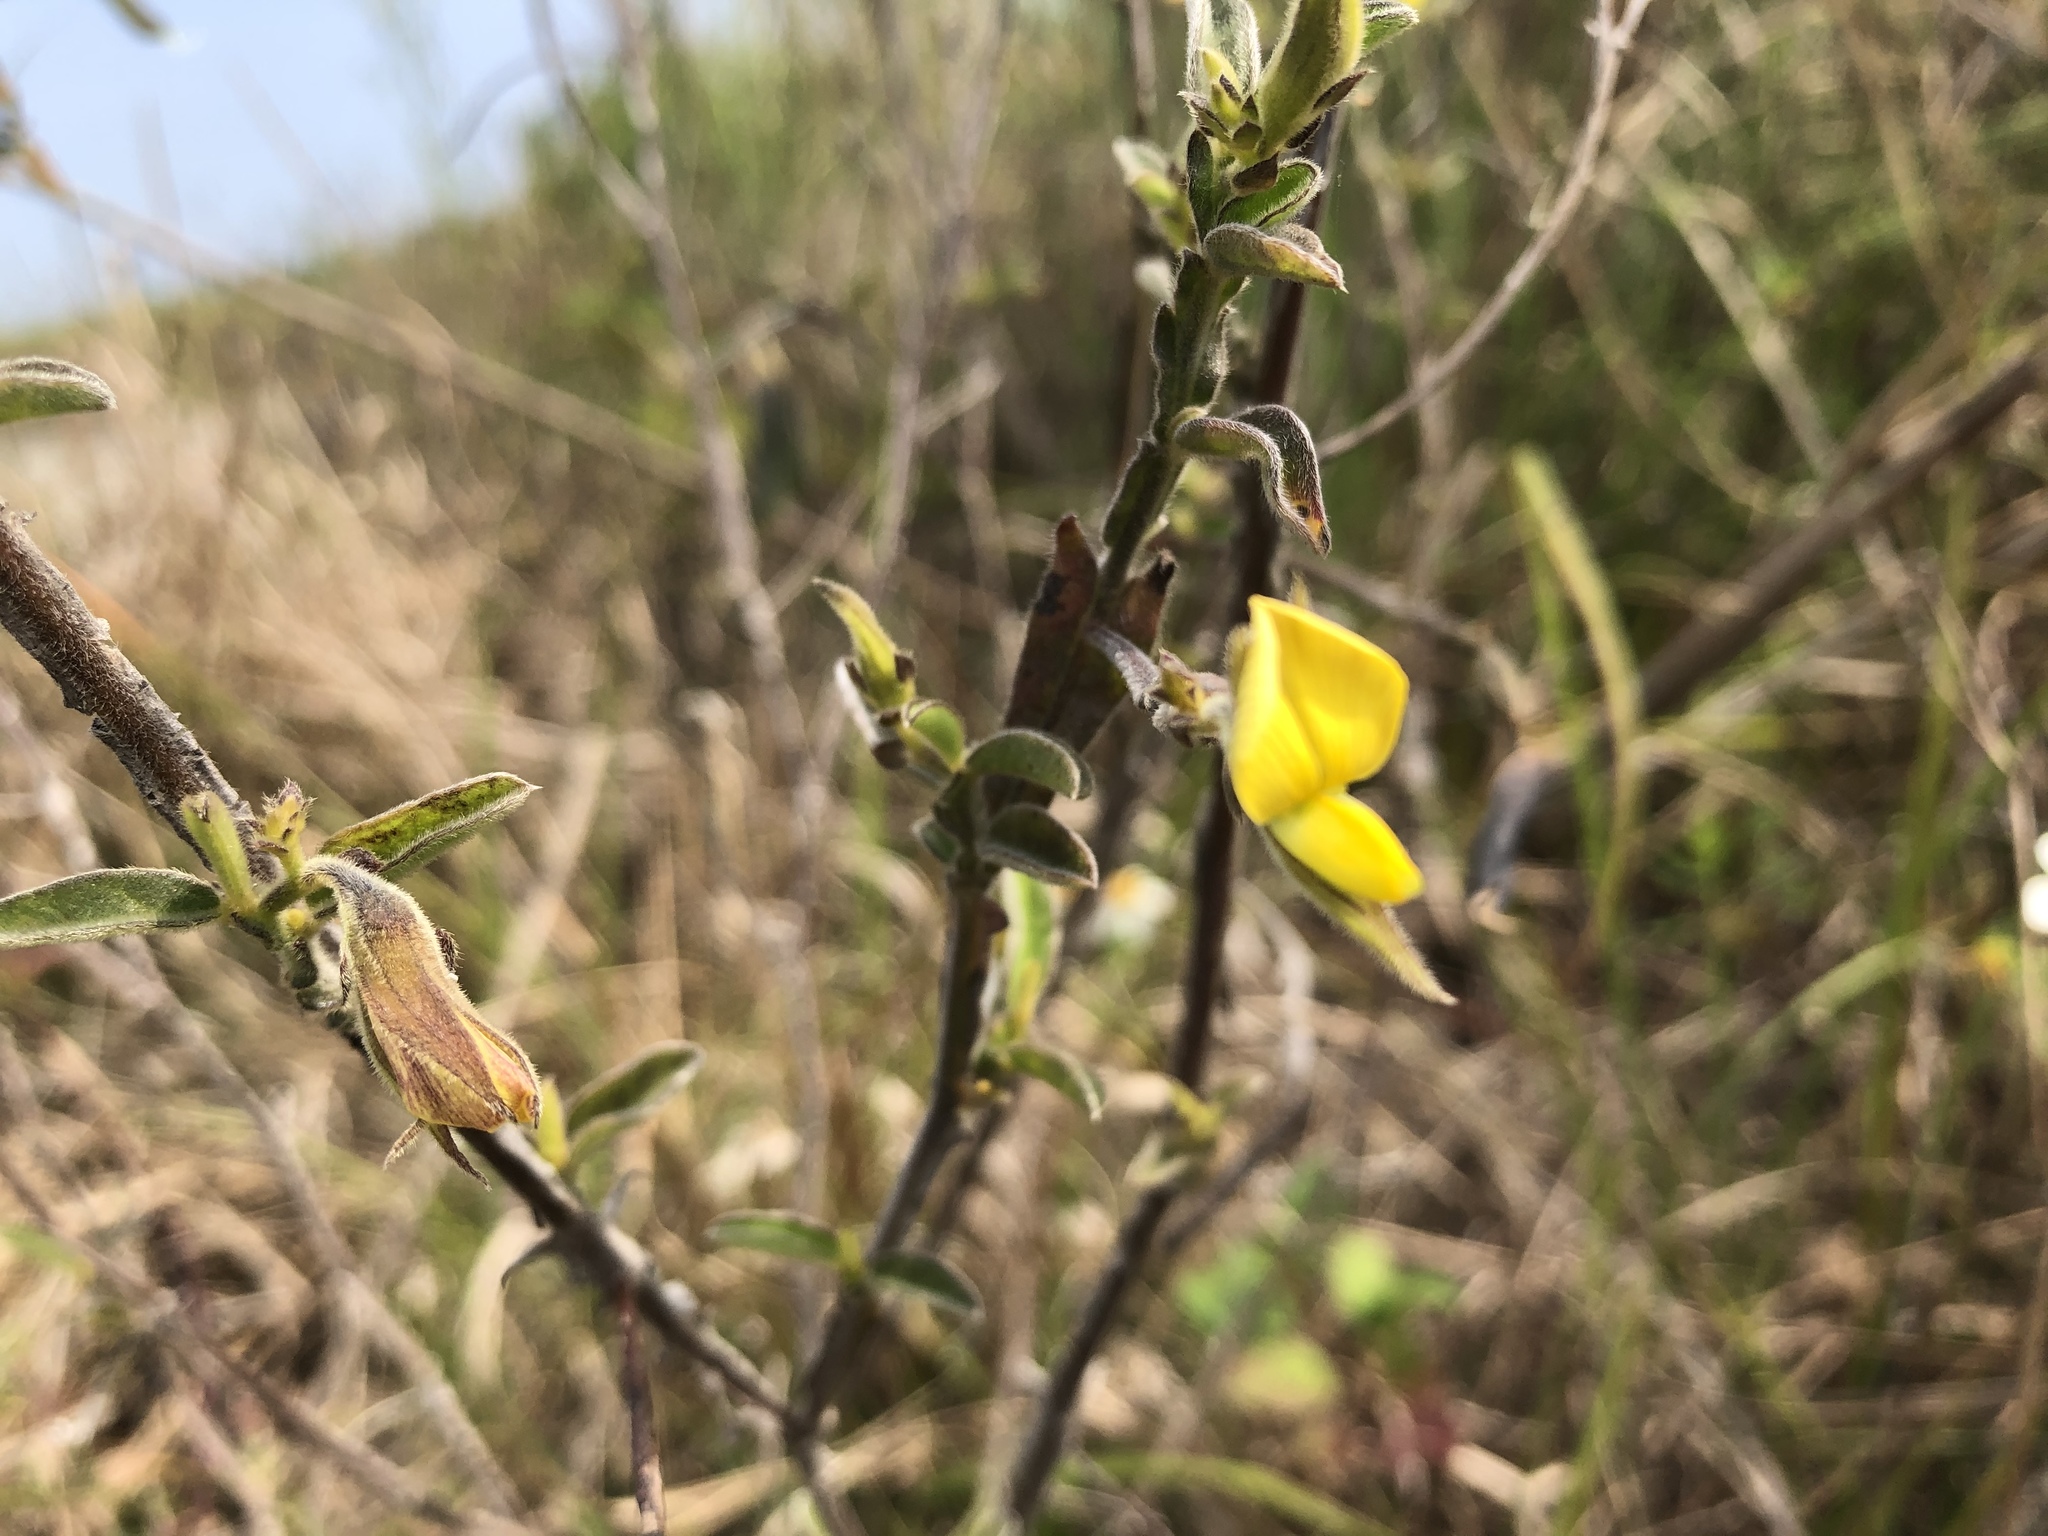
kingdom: Plantae
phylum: Tracheophyta
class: Magnoliopsida
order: Fabales
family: Fabaceae
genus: Crotalaria
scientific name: Crotalaria
